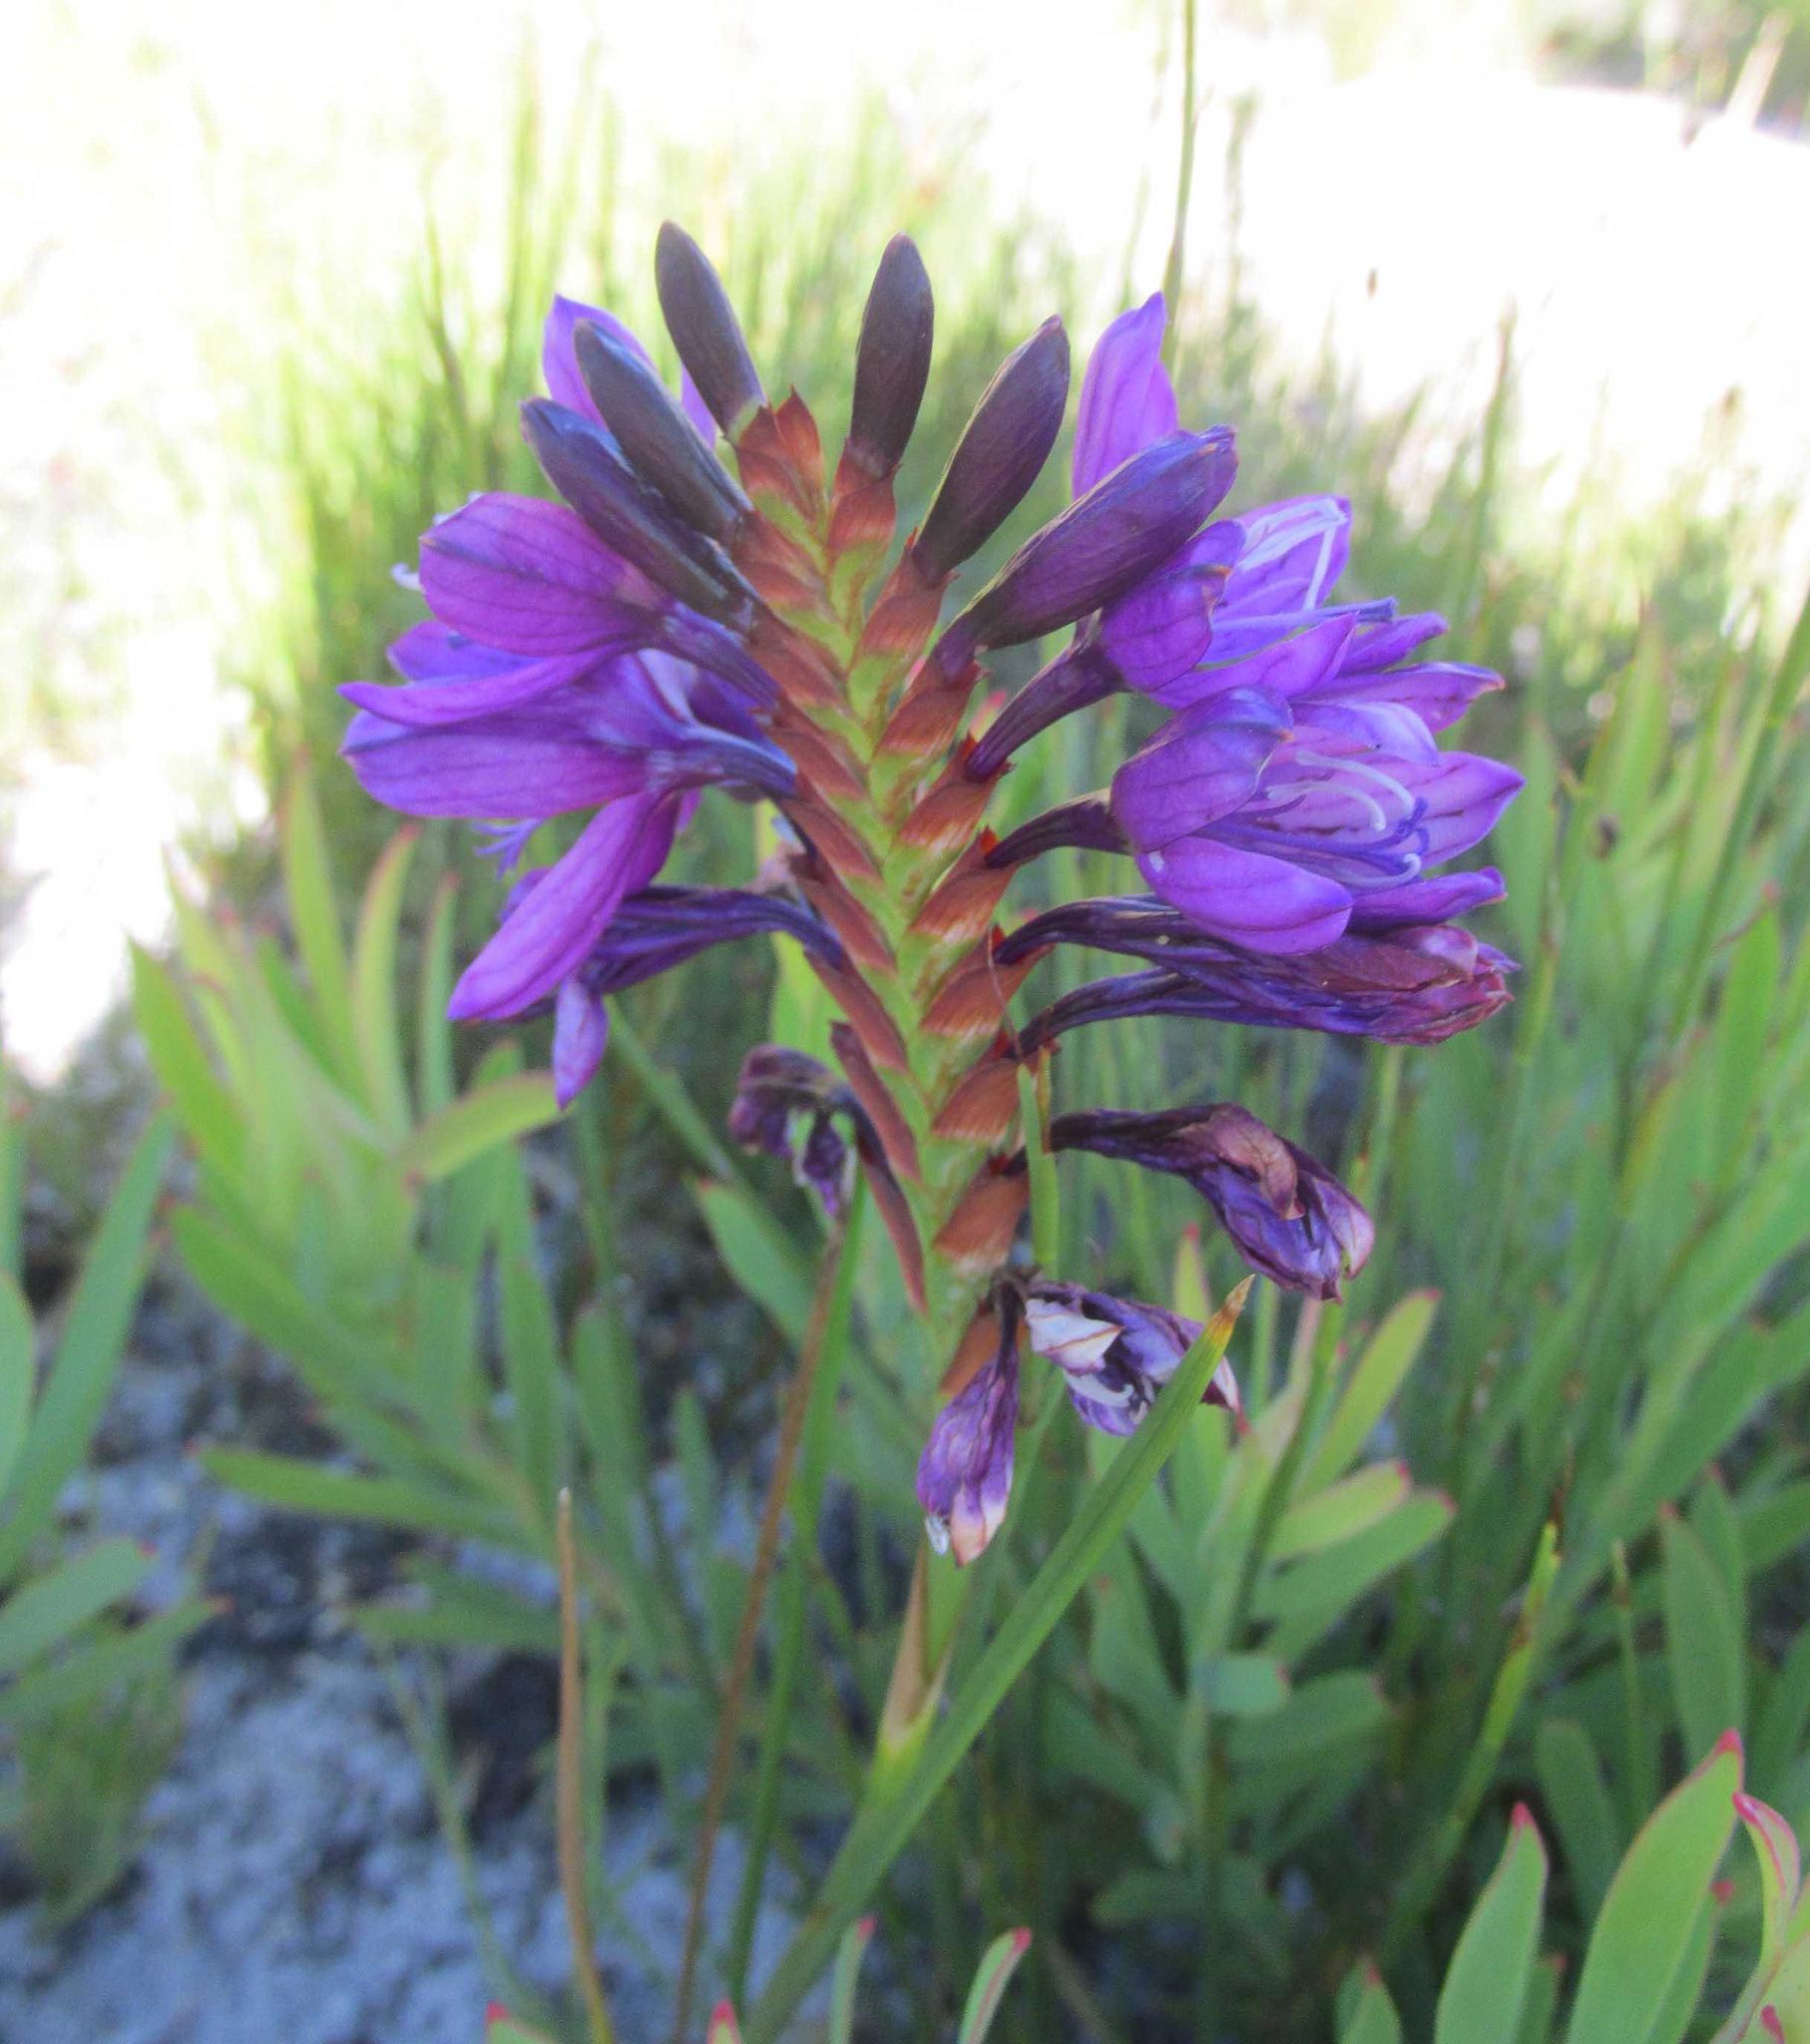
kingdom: Plantae
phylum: Tracheophyta
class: Liliopsida
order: Asparagales
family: Iridaceae
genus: Thereianthus
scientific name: Thereianthus bracteolatus
